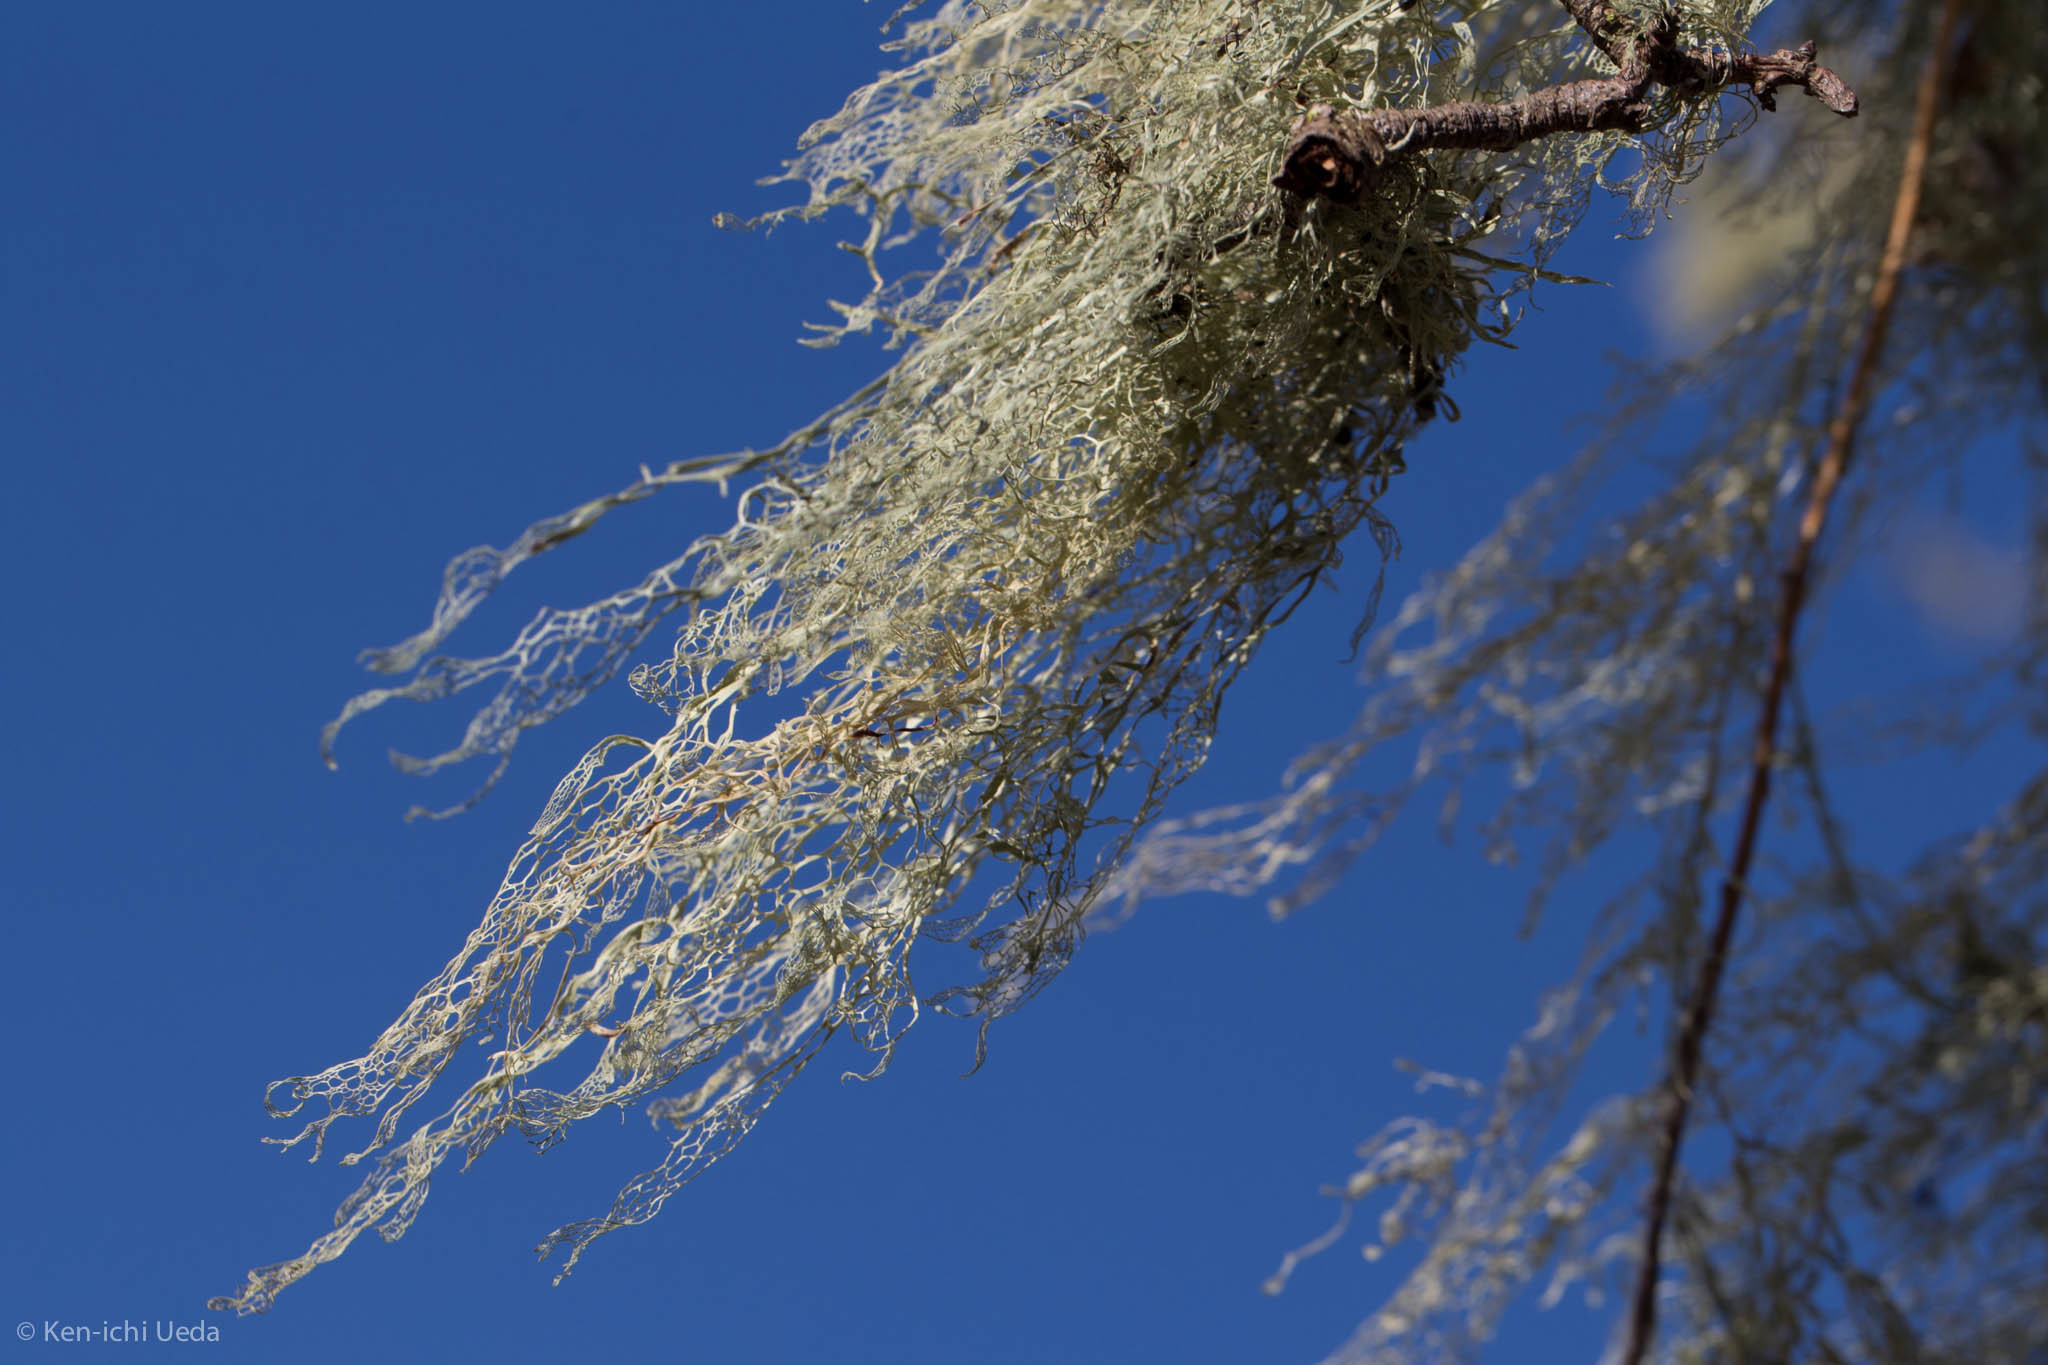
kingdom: Fungi
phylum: Ascomycota
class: Lecanoromycetes
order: Lecanorales
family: Ramalinaceae
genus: Ramalina
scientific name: Ramalina menziesii
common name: Lace lichen
